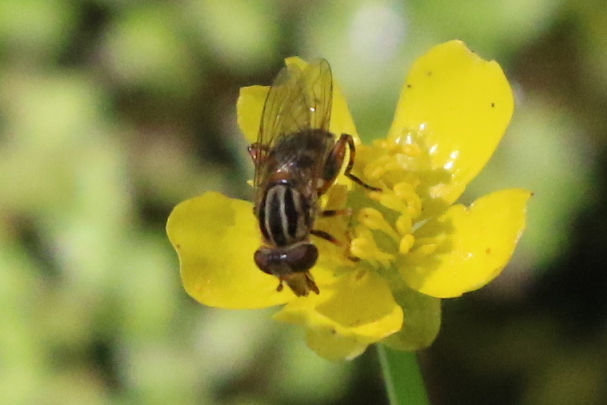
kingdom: Animalia
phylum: Arthropoda
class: Insecta
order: Diptera
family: Syrphidae
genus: Eurimyia
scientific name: Eurimyia stipatus
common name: Long-nosed swamp fly
